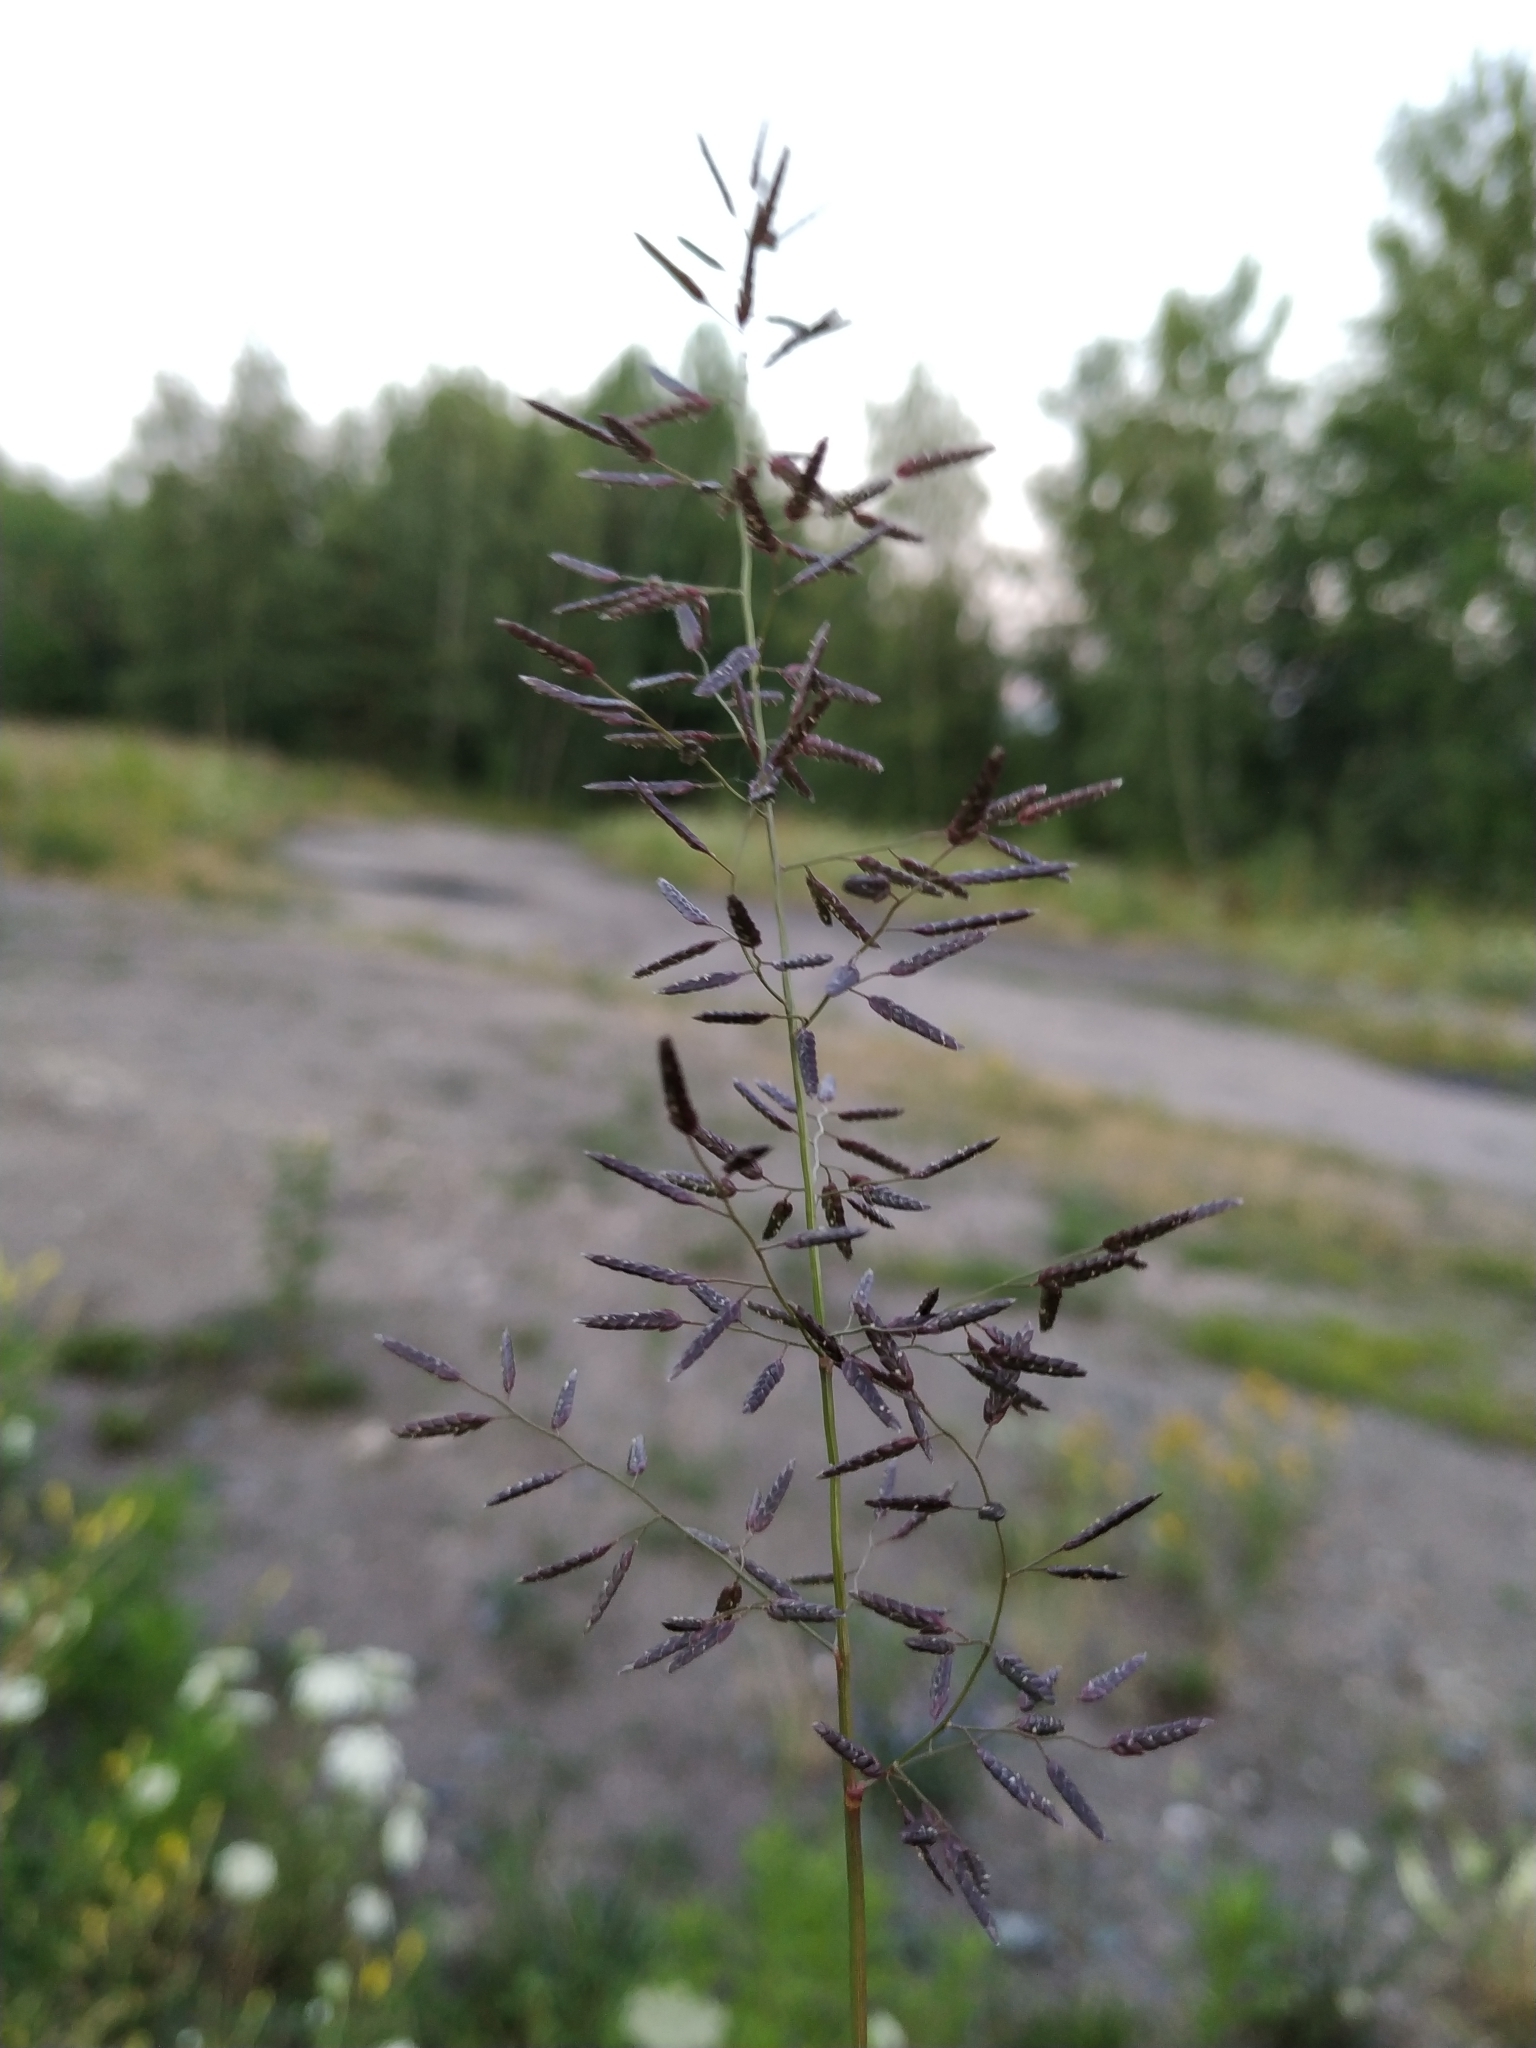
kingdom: Plantae
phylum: Tracheophyta
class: Liliopsida
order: Poales
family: Poaceae
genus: Eragrostis
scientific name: Eragrostis minor
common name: Small love-grass
